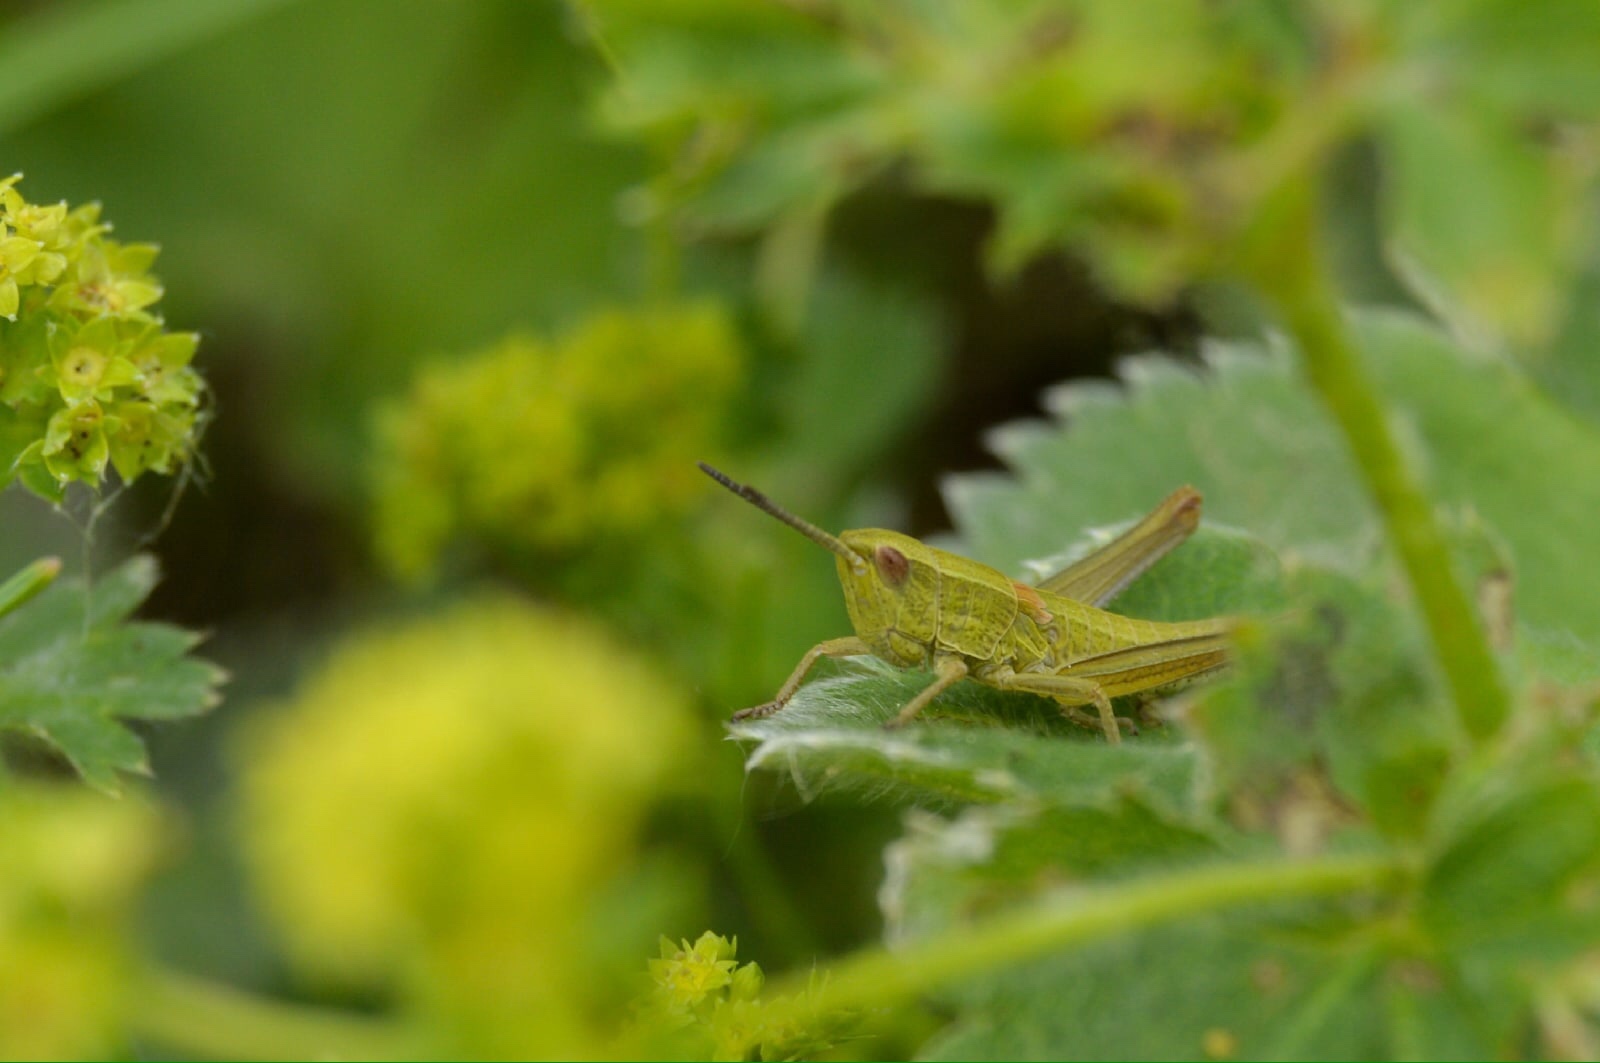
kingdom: Animalia
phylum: Arthropoda
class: Insecta
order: Orthoptera
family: Acrididae
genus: Euthystira
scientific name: Euthystira brachyptera
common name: Small gold grasshopper
